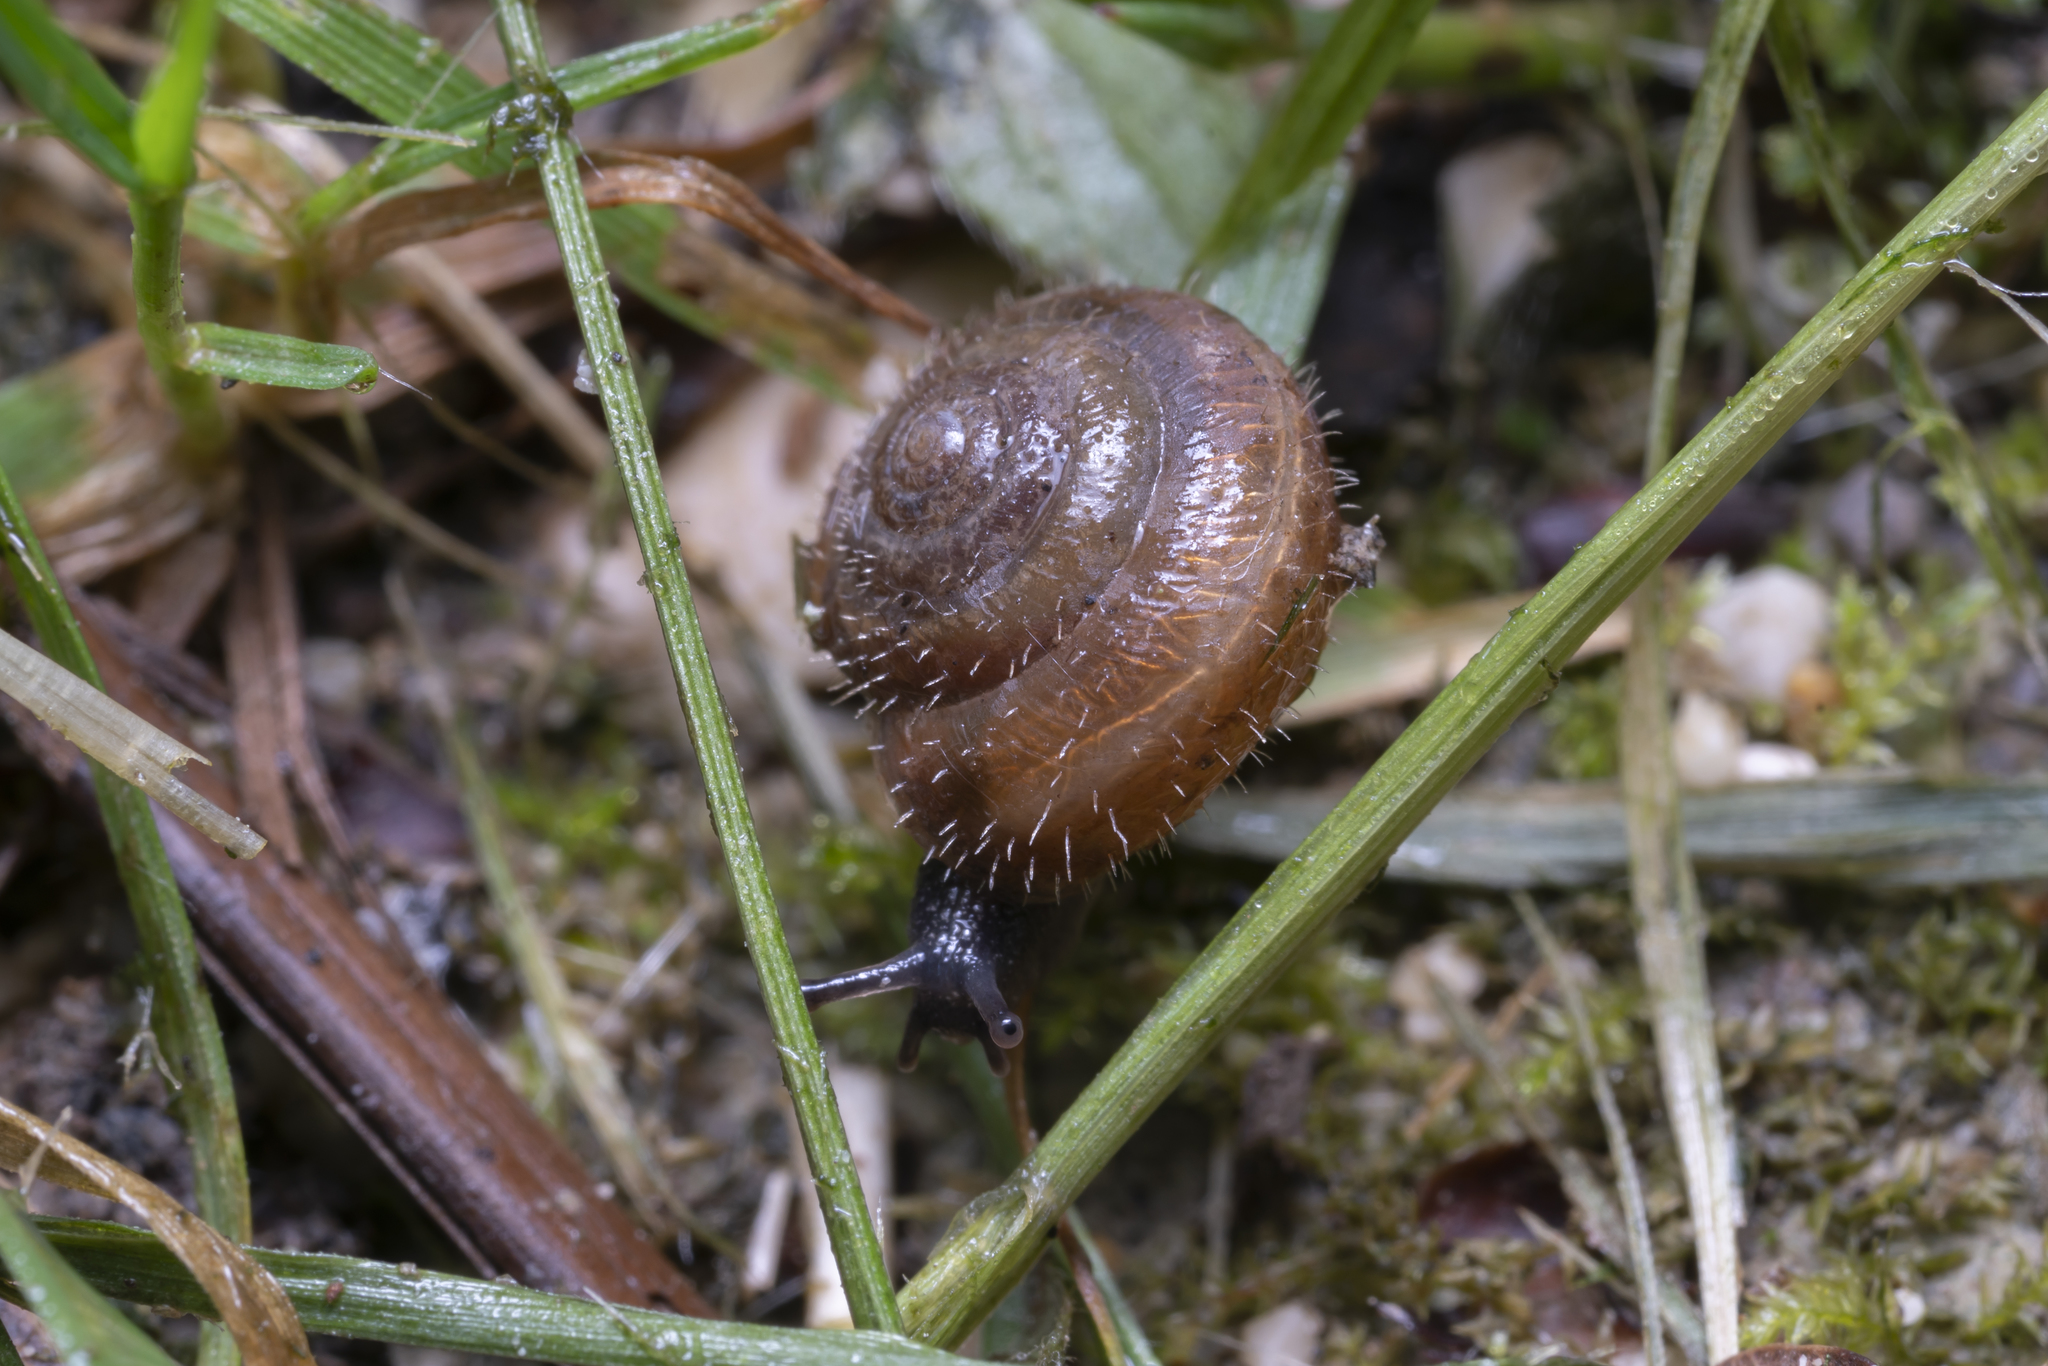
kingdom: Animalia
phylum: Mollusca
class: Gastropoda
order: Stylommatophora
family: Hygromiidae
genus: Trochulus
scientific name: Trochulus hispidus
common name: Hairy snail
